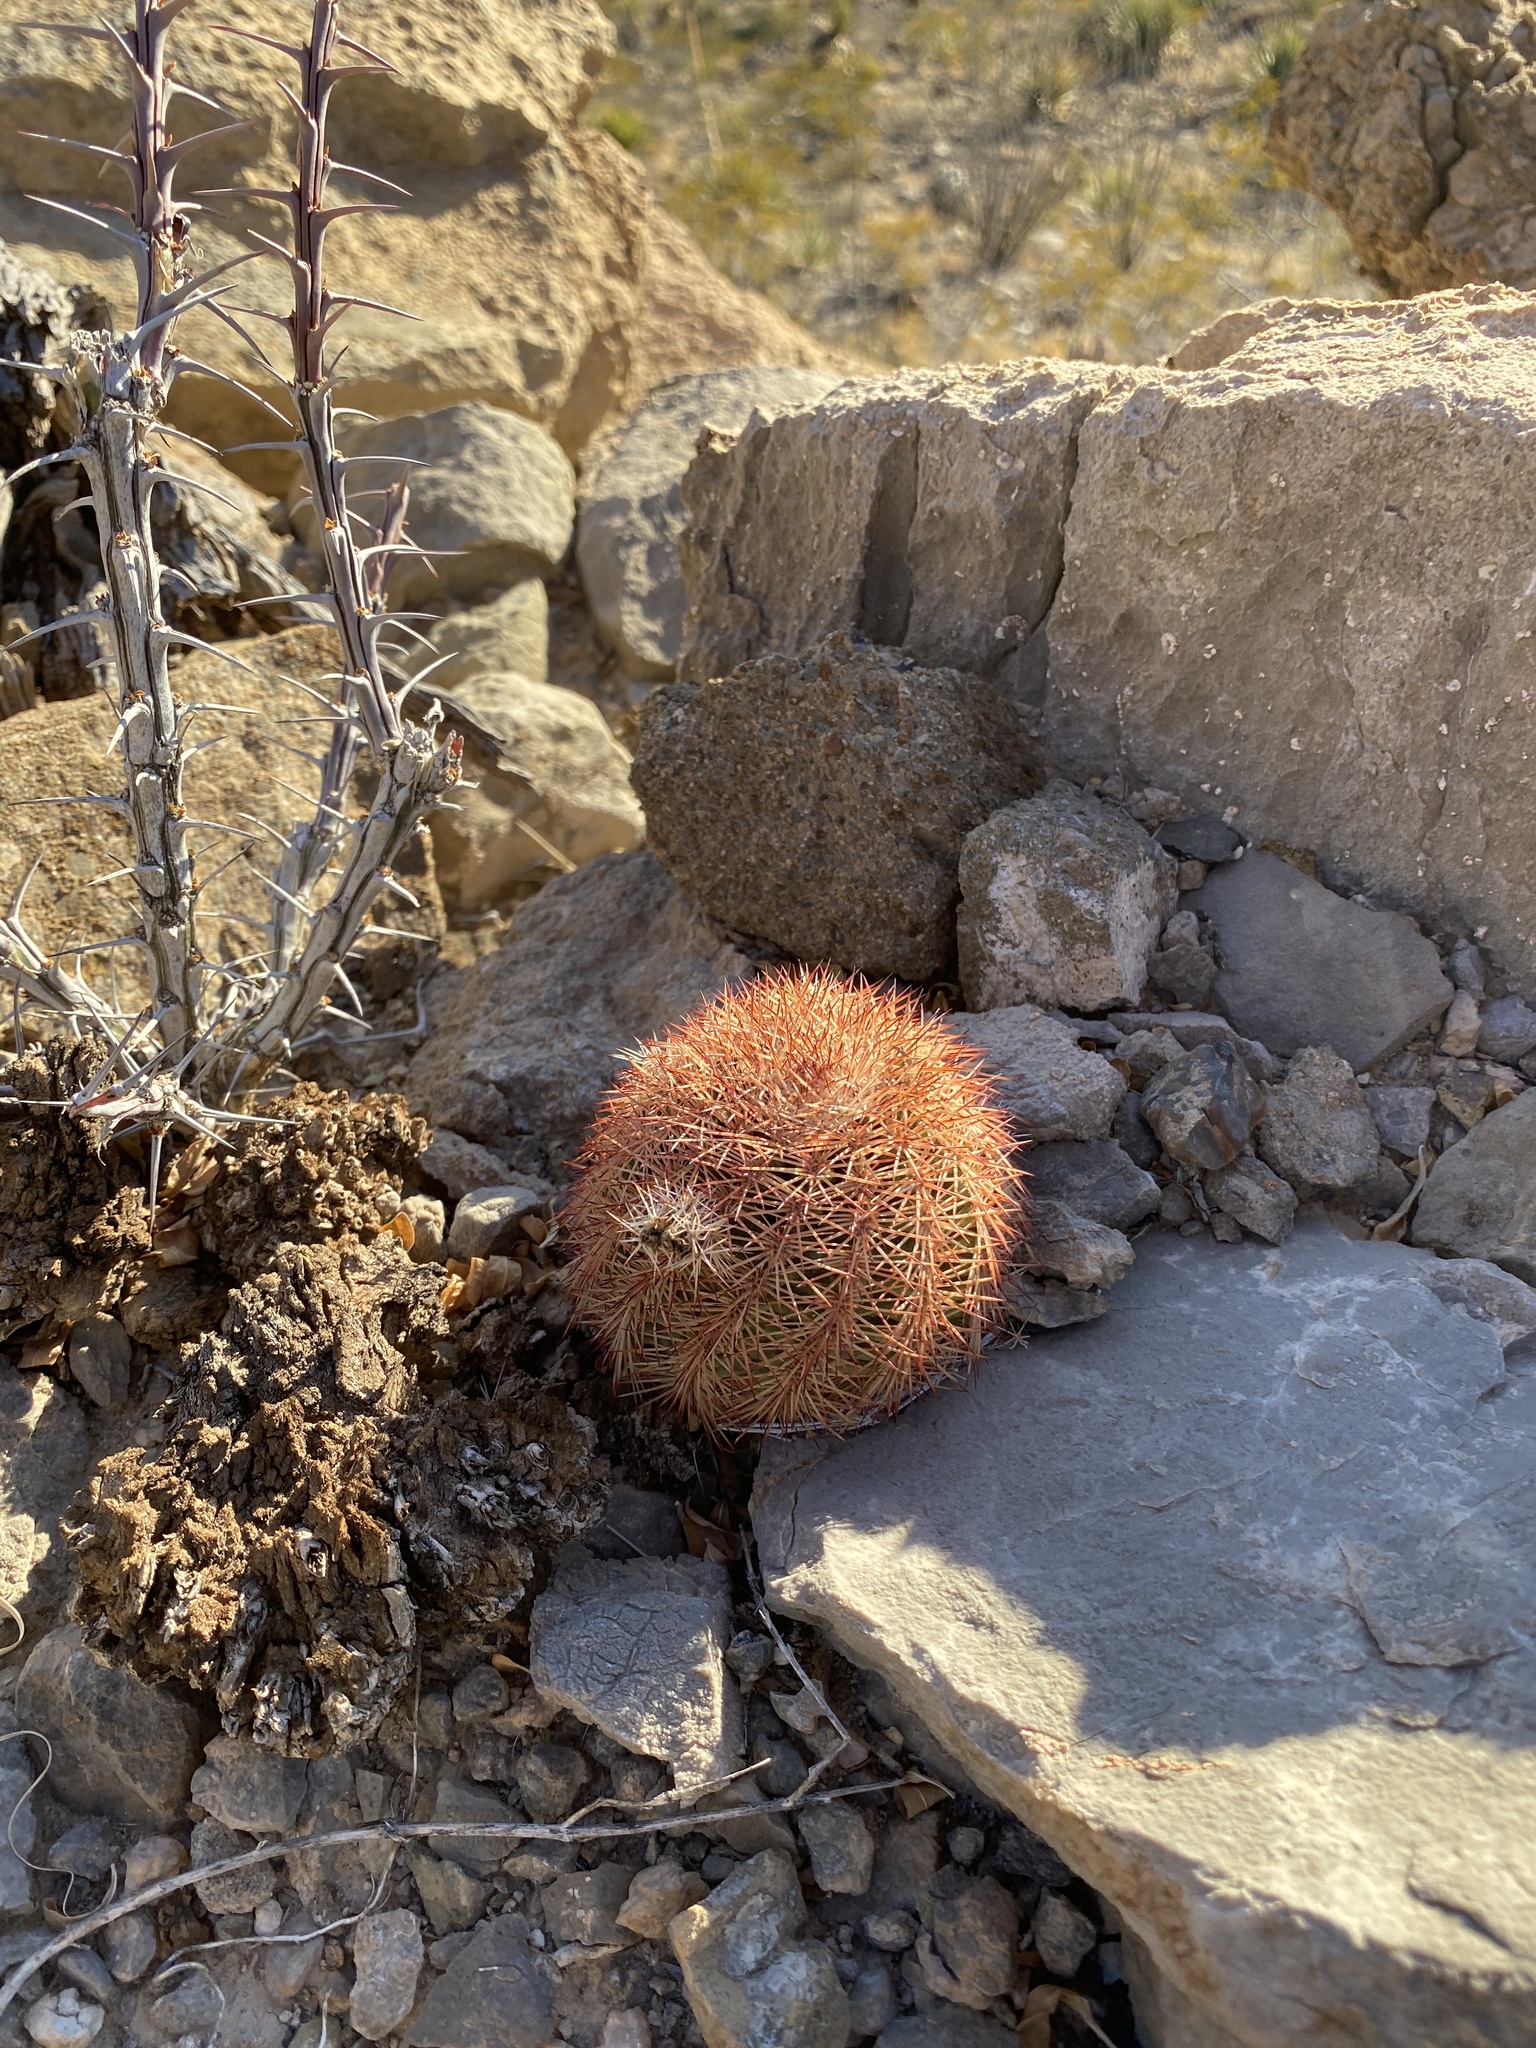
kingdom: Plantae
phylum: Tracheophyta
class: Magnoliopsida
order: Caryophyllales
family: Cactaceae
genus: Echinocereus
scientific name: Echinocereus dasyacanthus
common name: Spiny hedgehog cactus
